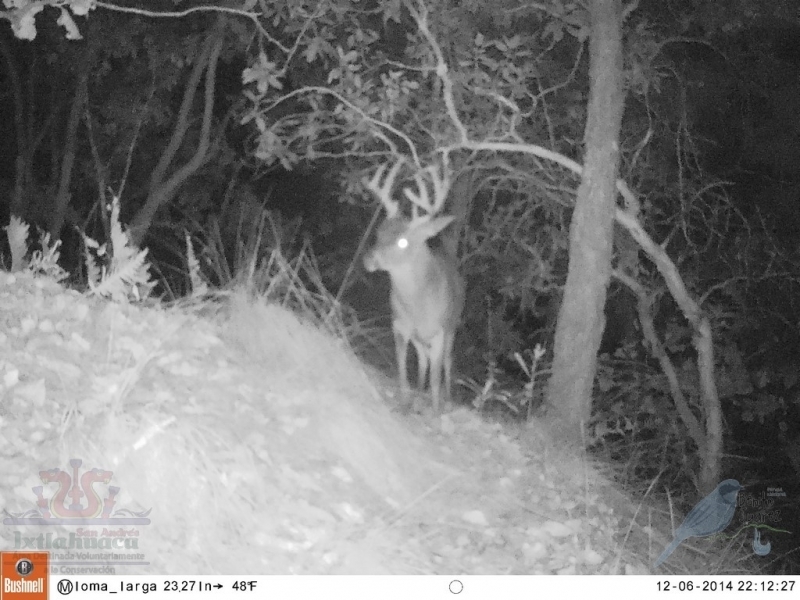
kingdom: Animalia
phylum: Chordata
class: Mammalia
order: Artiodactyla
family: Cervidae
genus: Odocoileus
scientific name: Odocoileus virginianus
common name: White-tailed deer
